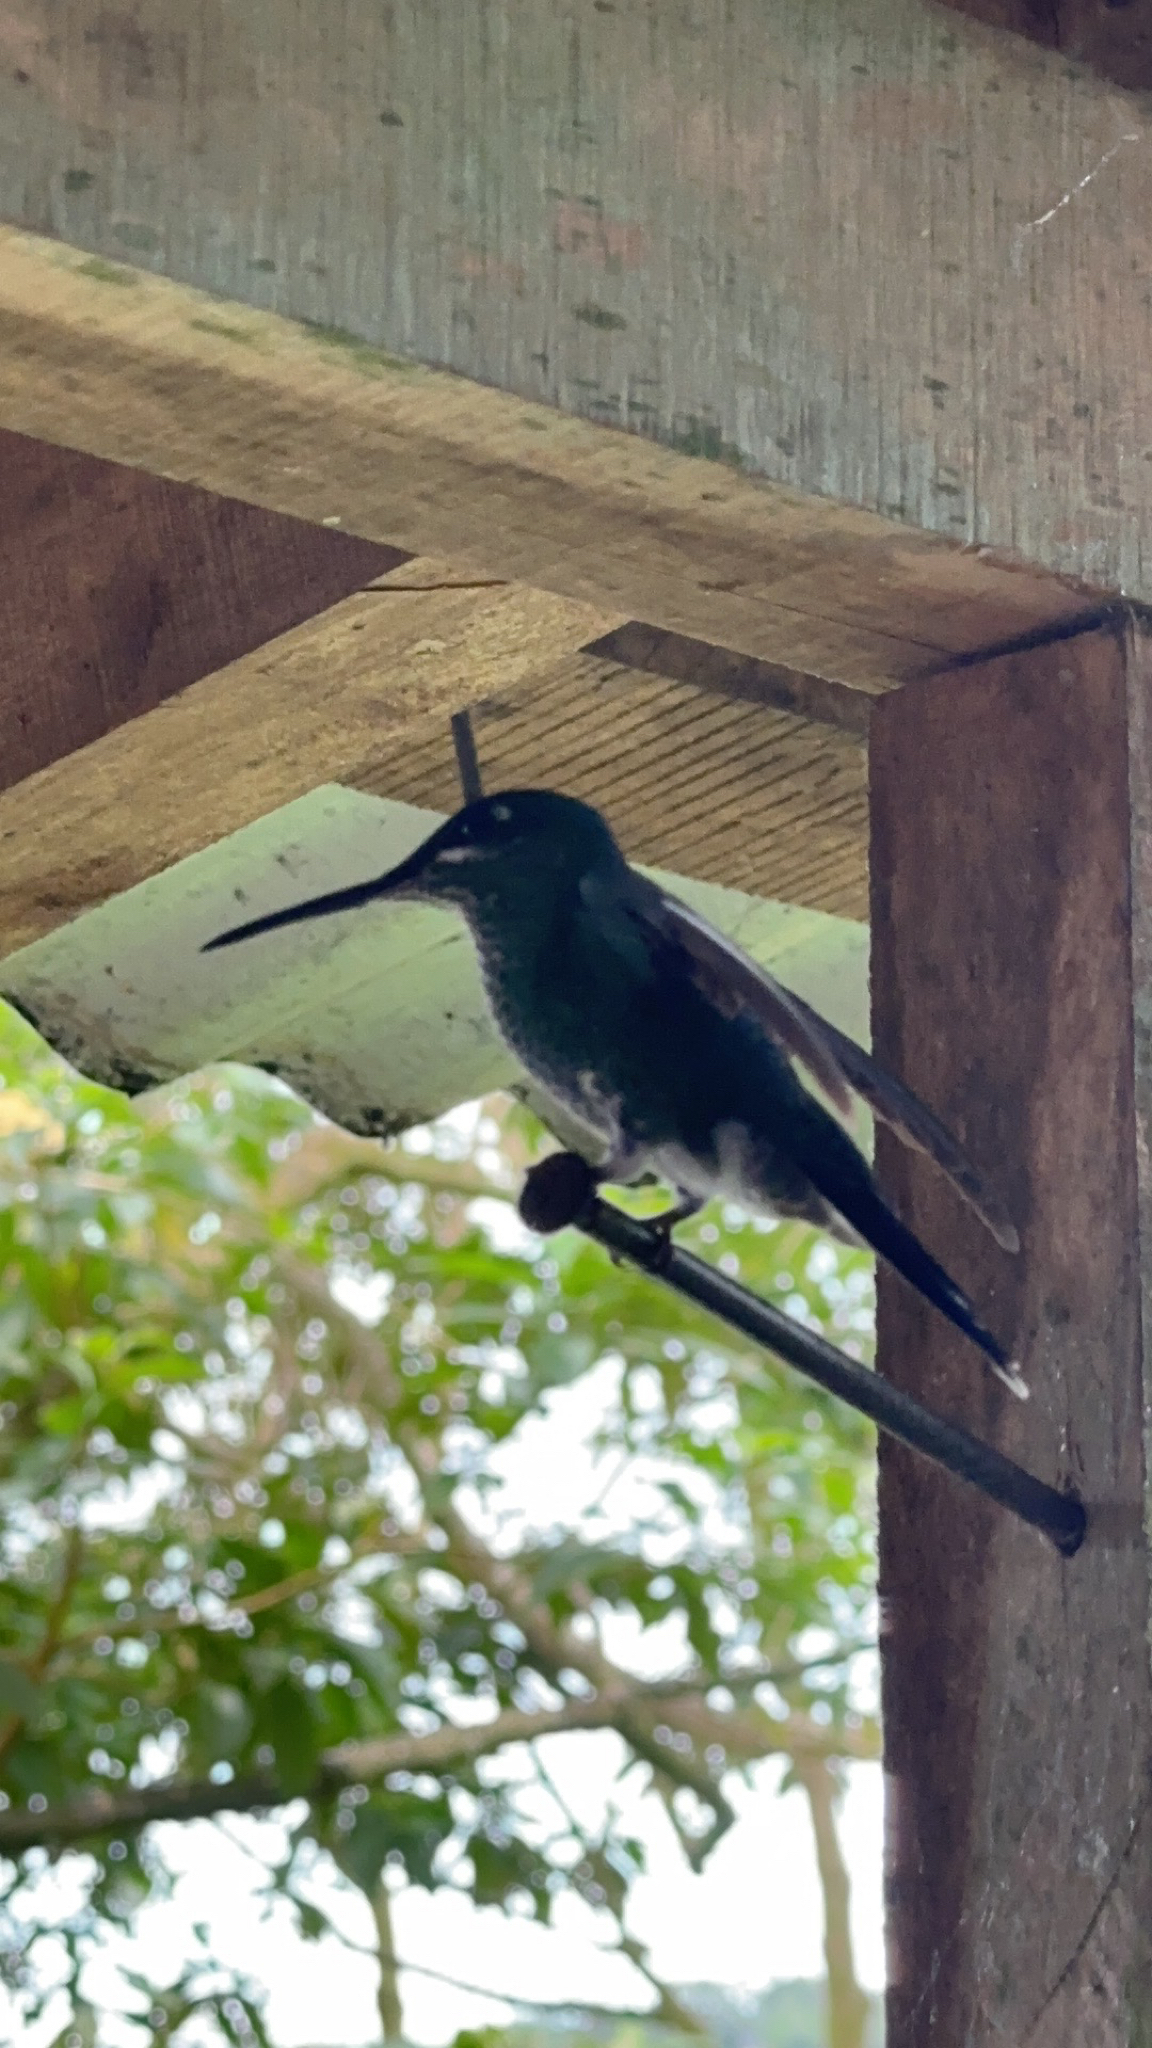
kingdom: Animalia
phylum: Chordata
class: Aves
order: Apodiformes
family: Trochilidae
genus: Heliodoxa
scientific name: Heliodoxa jacula
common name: Green-crowned brilliant
